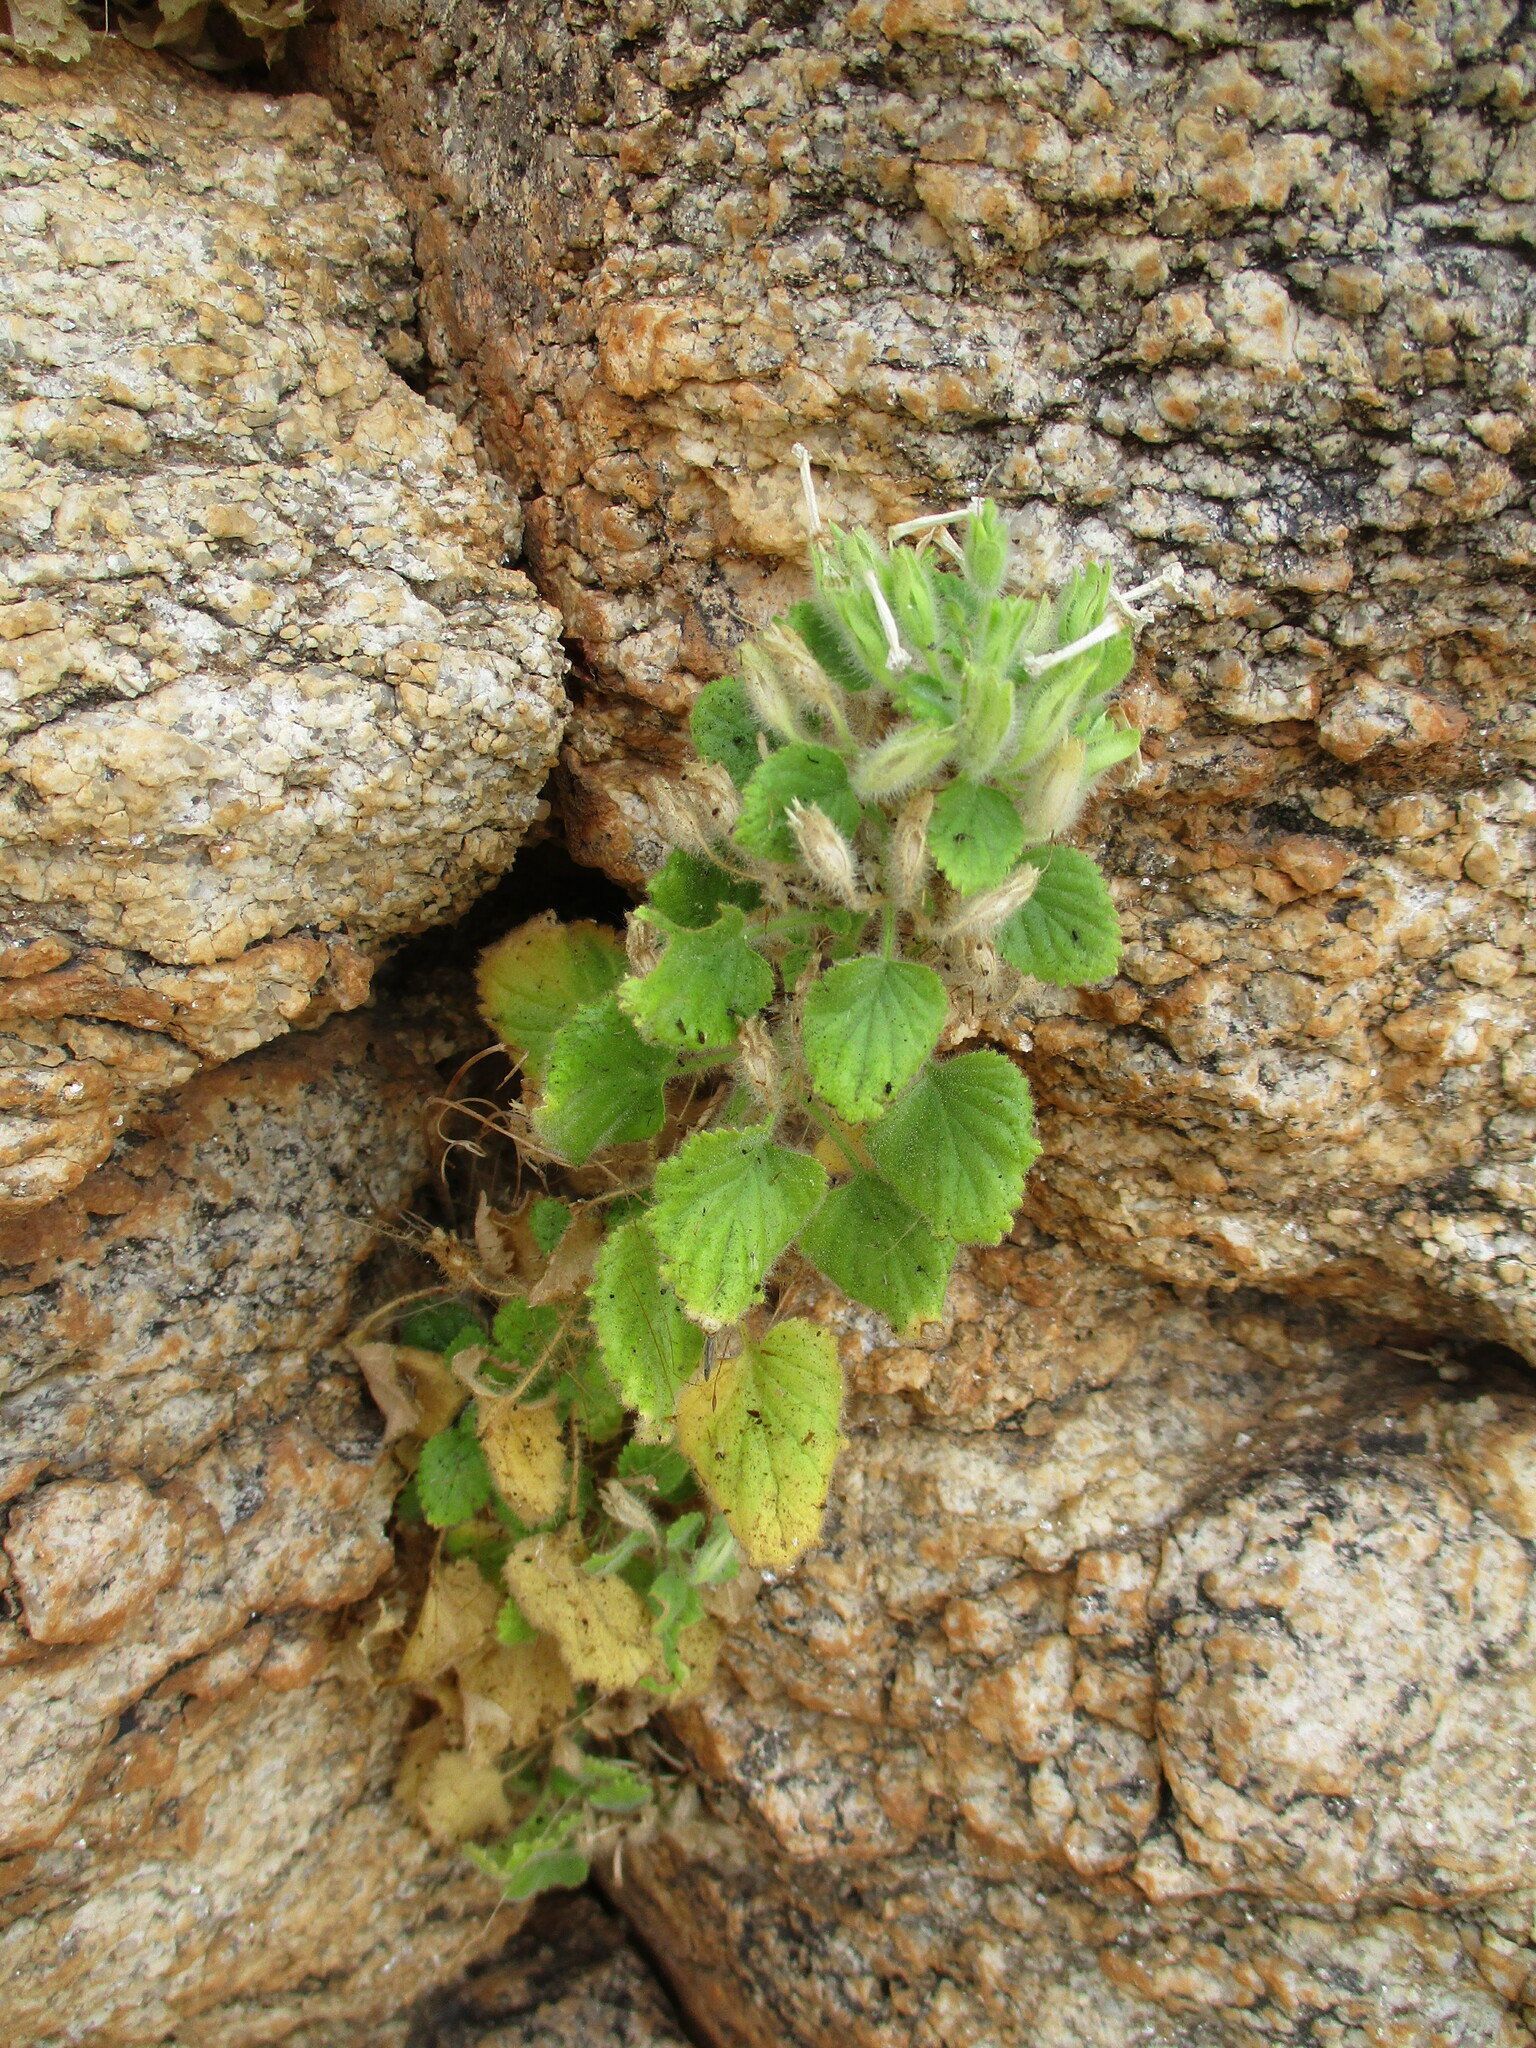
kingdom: Plantae
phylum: Tracheophyta
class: Magnoliopsida
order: Lamiales
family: Scrophulariaceae
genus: Camptoloma
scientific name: Camptoloma rotundifolium
